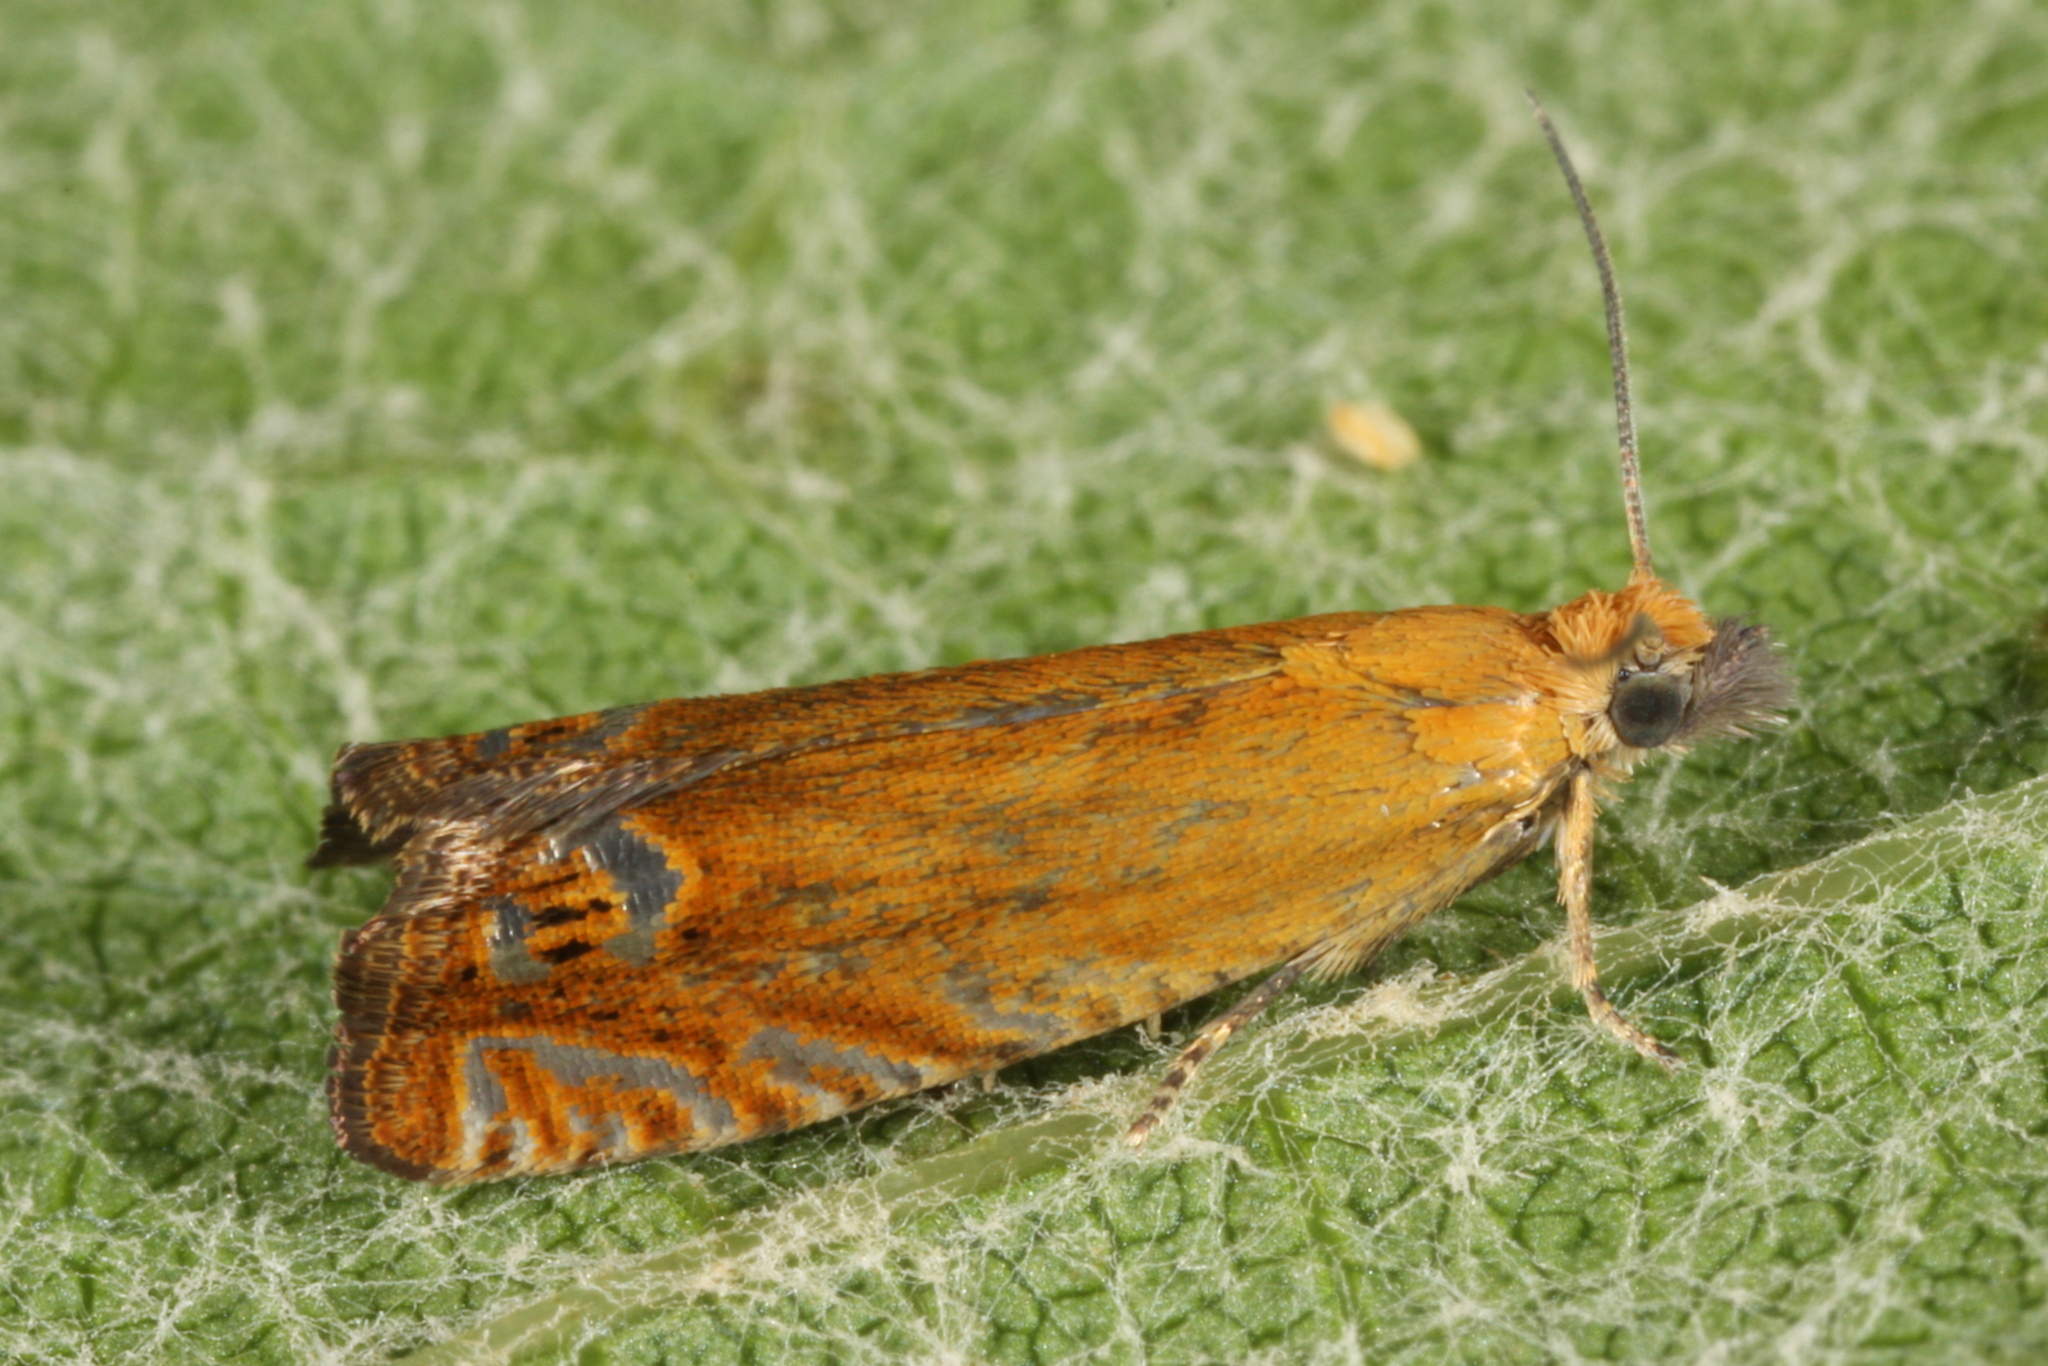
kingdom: Animalia
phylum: Arthropoda
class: Insecta
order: Lepidoptera
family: Tortricidae
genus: Lathronympha
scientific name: Lathronympha strigana
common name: Red piercer
